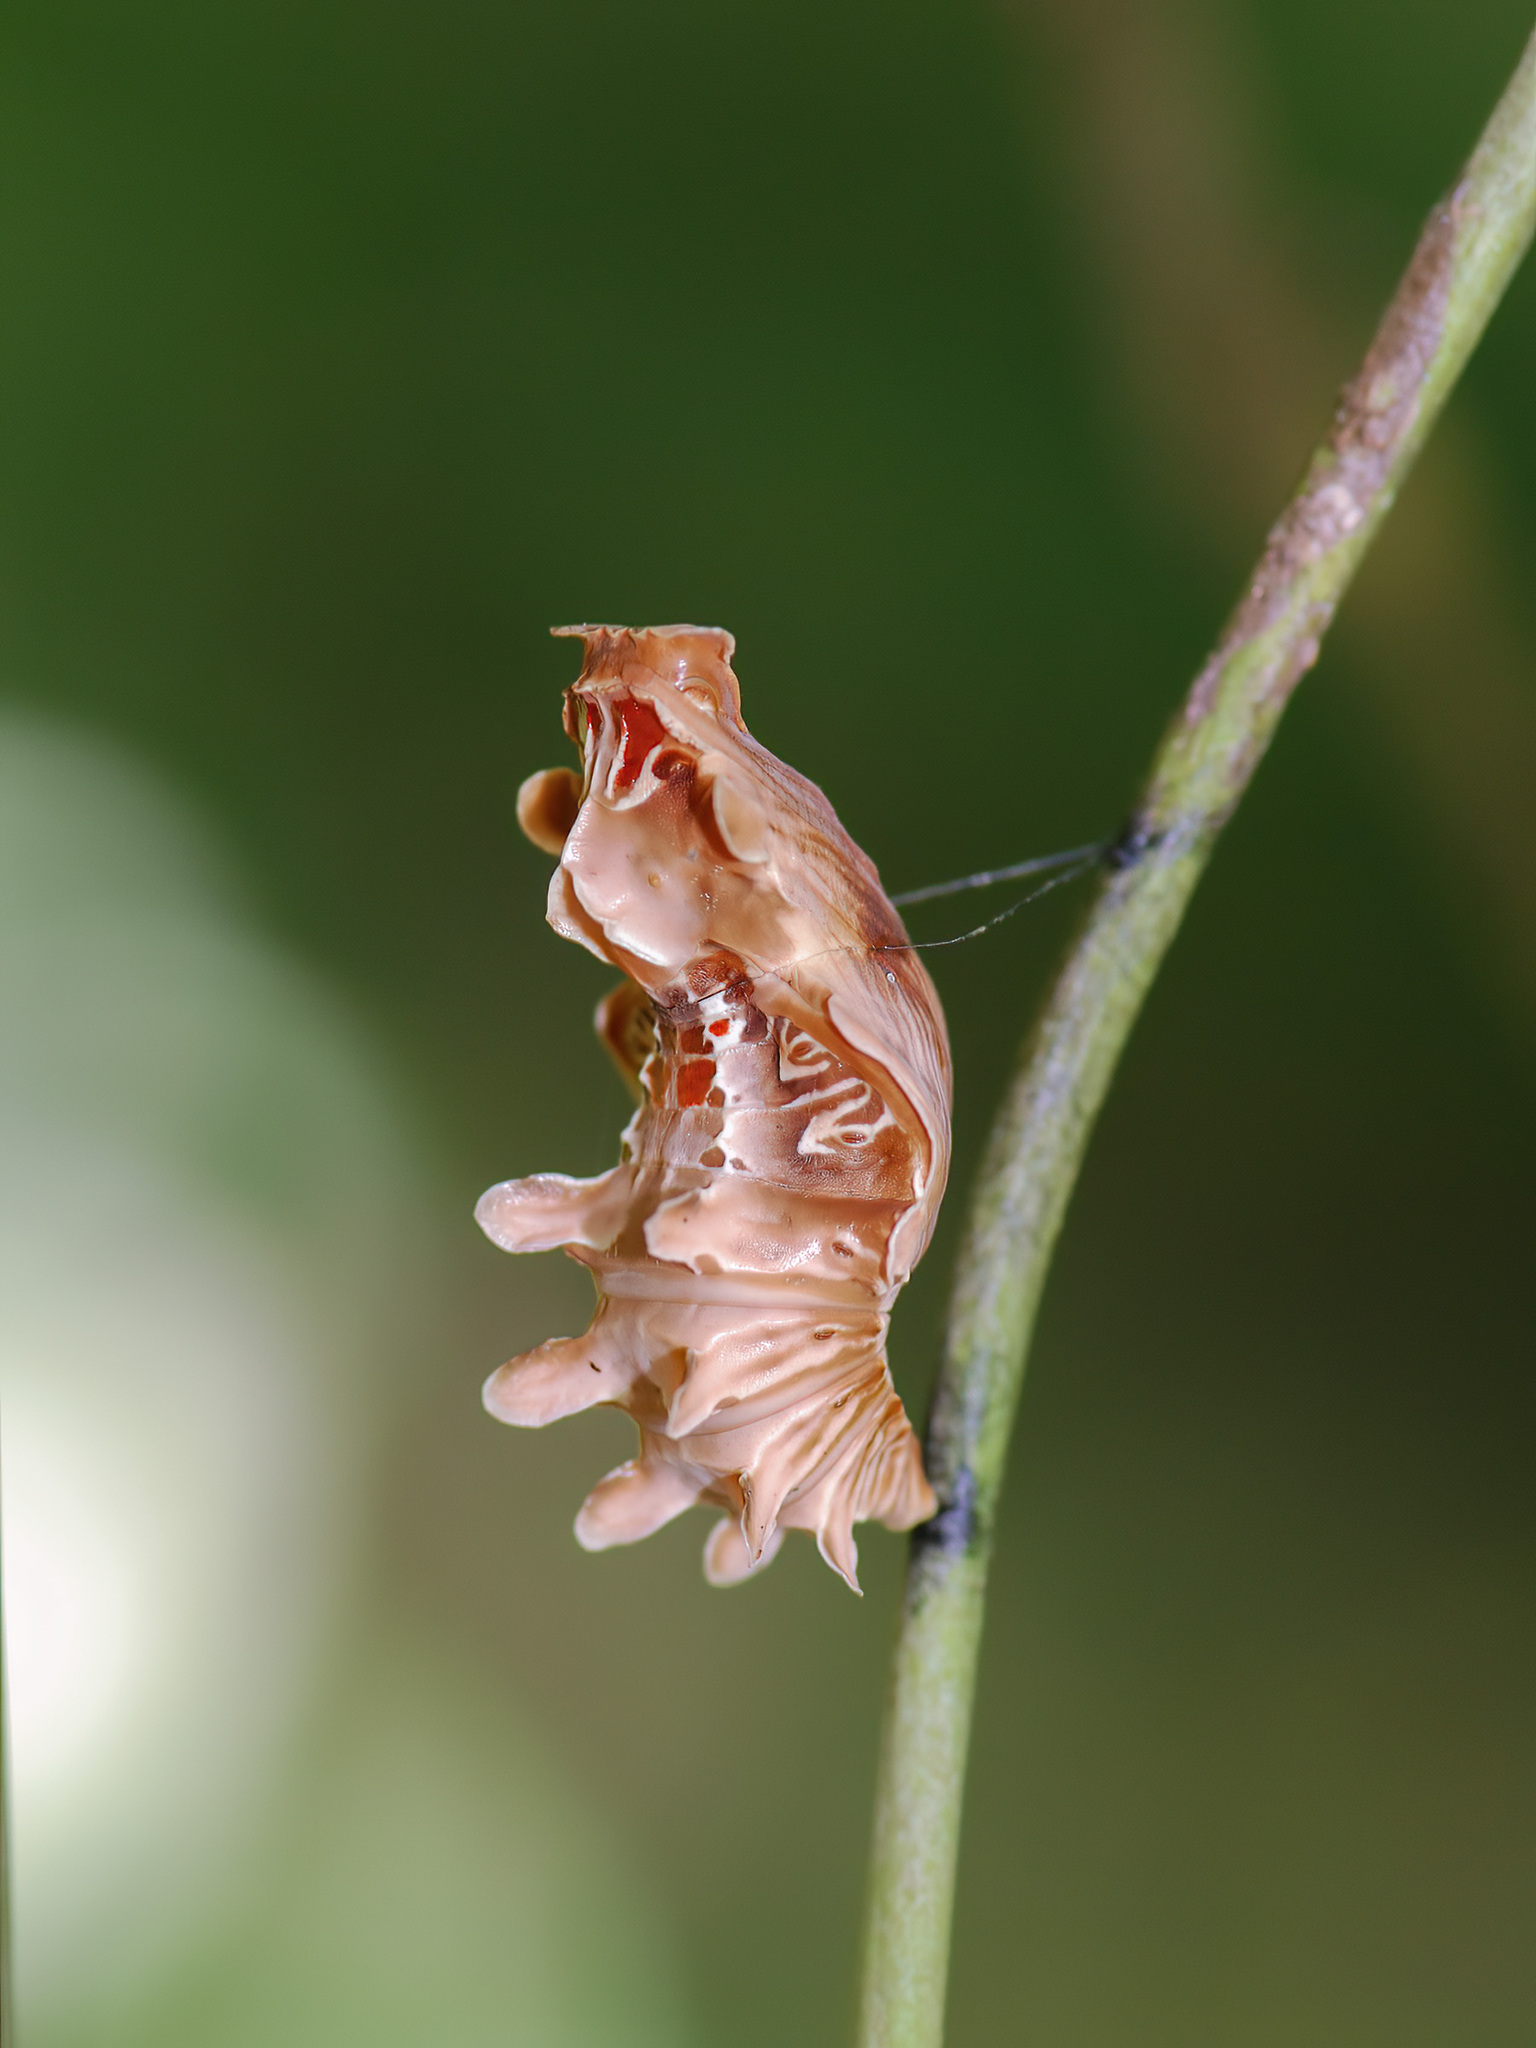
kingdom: Animalia
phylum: Arthropoda
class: Insecta
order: Lepidoptera
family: Papilionidae
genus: Pachliopta
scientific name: Pachliopta aristolochiae
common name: Common rose
